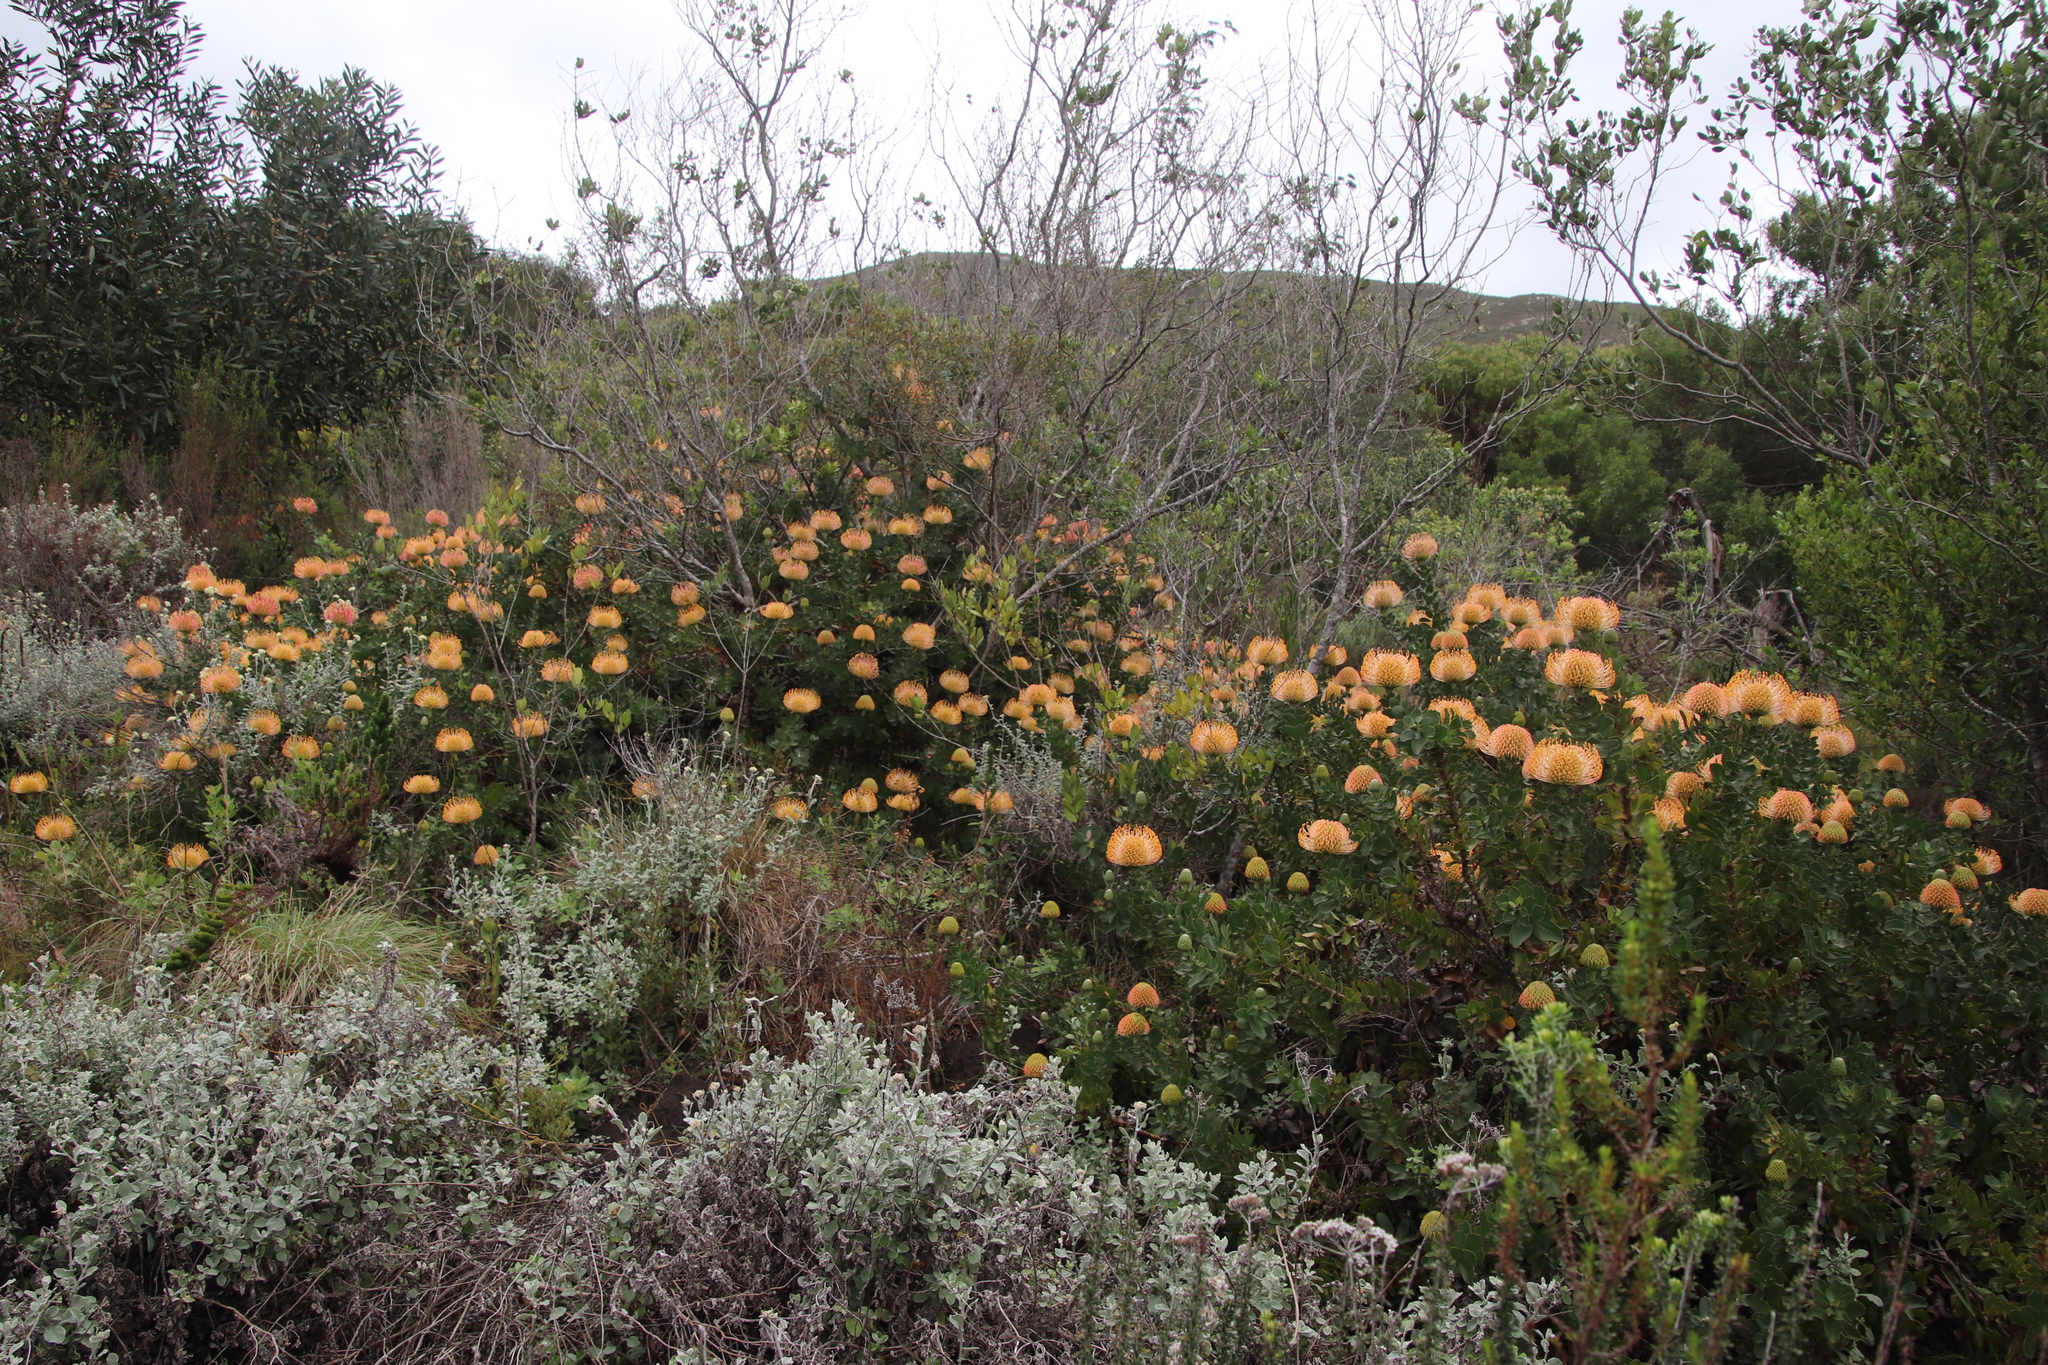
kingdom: Plantae
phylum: Tracheophyta
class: Magnoliopsida
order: Proteales
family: Proteaceae
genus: Leucospermum
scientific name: Leucospermum cordifolium
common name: Red pincushion-protea
